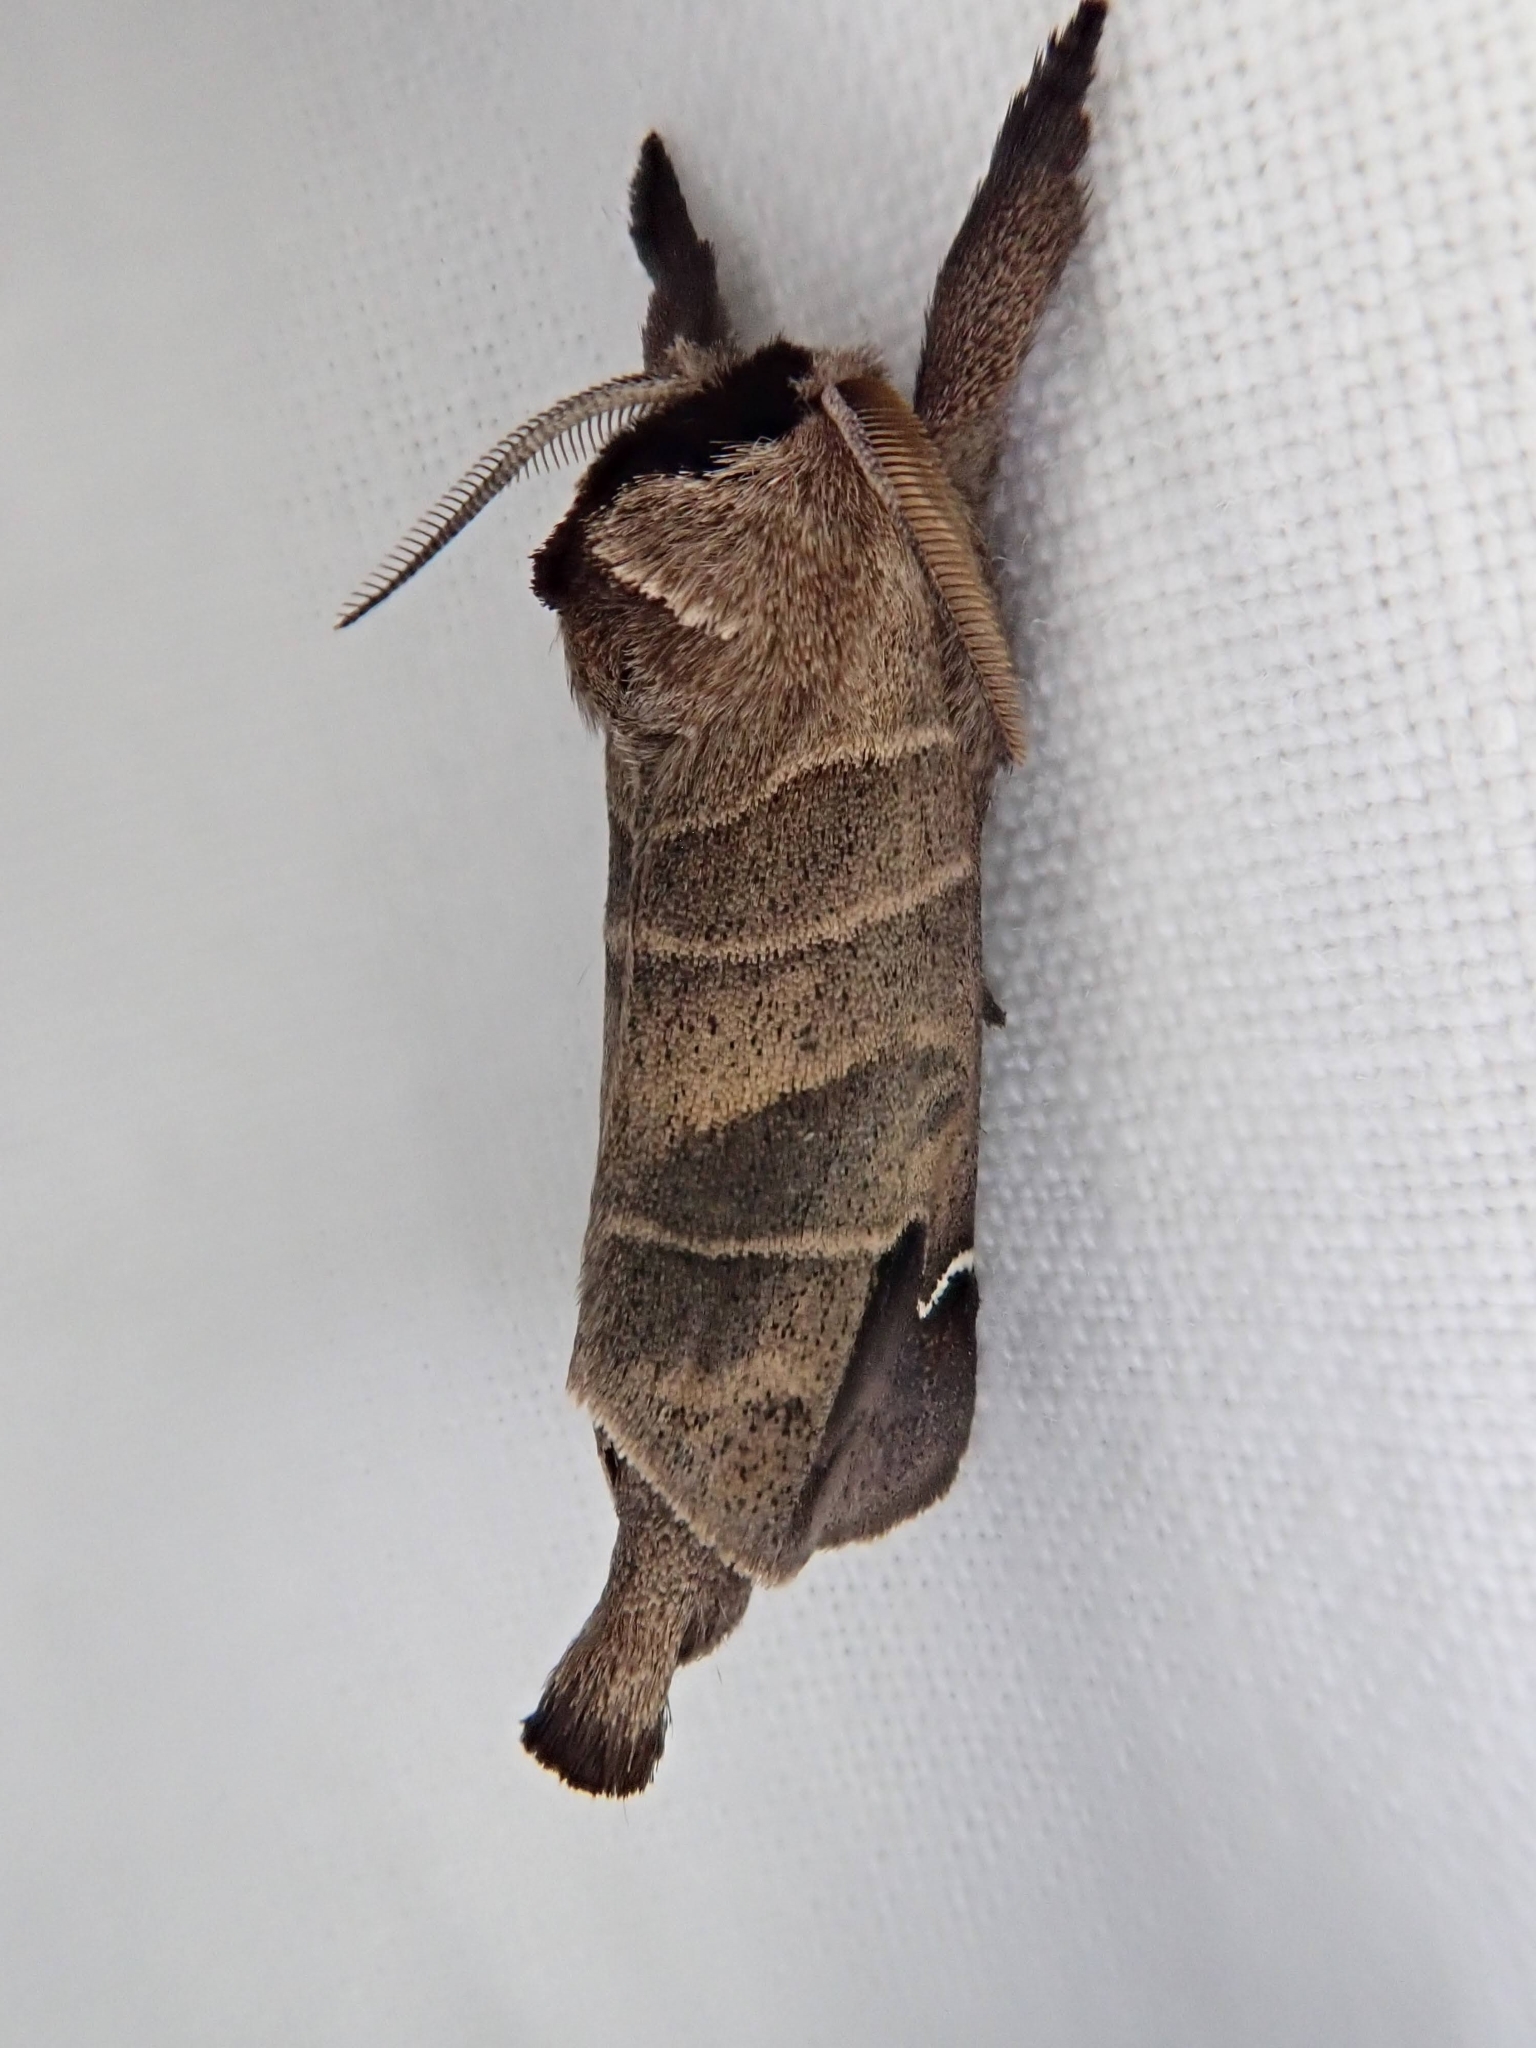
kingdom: Animalia
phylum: Arthropoda
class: Insecta
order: Lepidoptera
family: Notodontidae
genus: Clostera
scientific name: Clostera albosigma
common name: Sigmoid prominent
